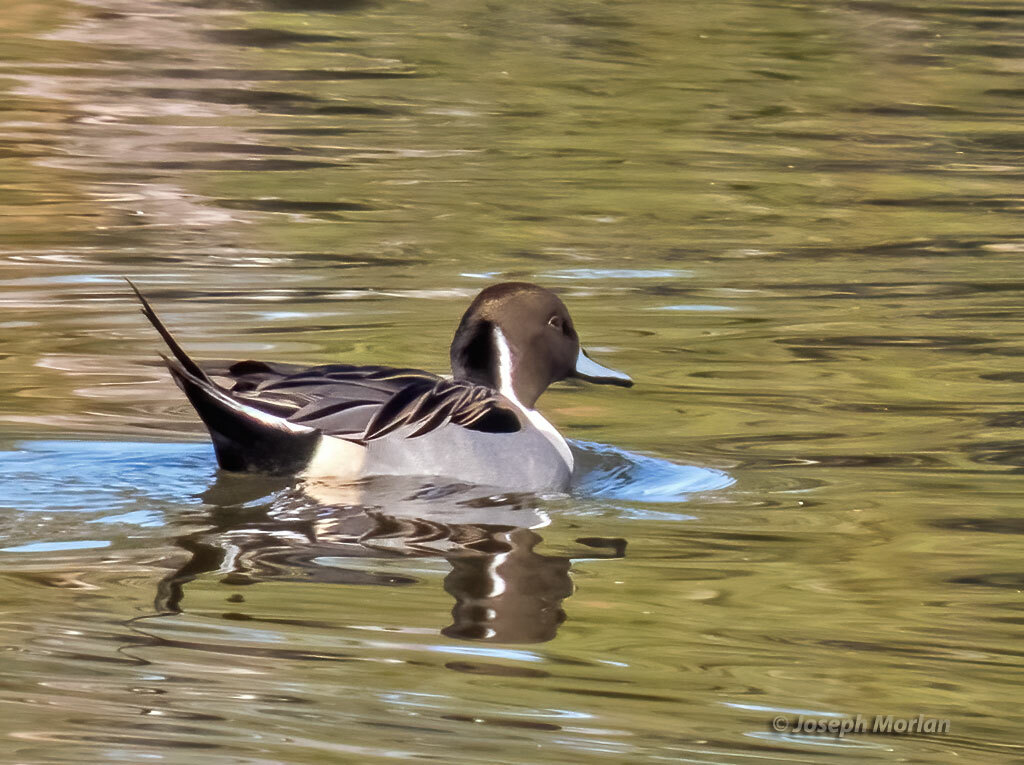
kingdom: Animalia
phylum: Chordata
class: Aves
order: Anseriformes
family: Anatidae
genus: Anas
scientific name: Anas acuta
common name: Northern pintail
